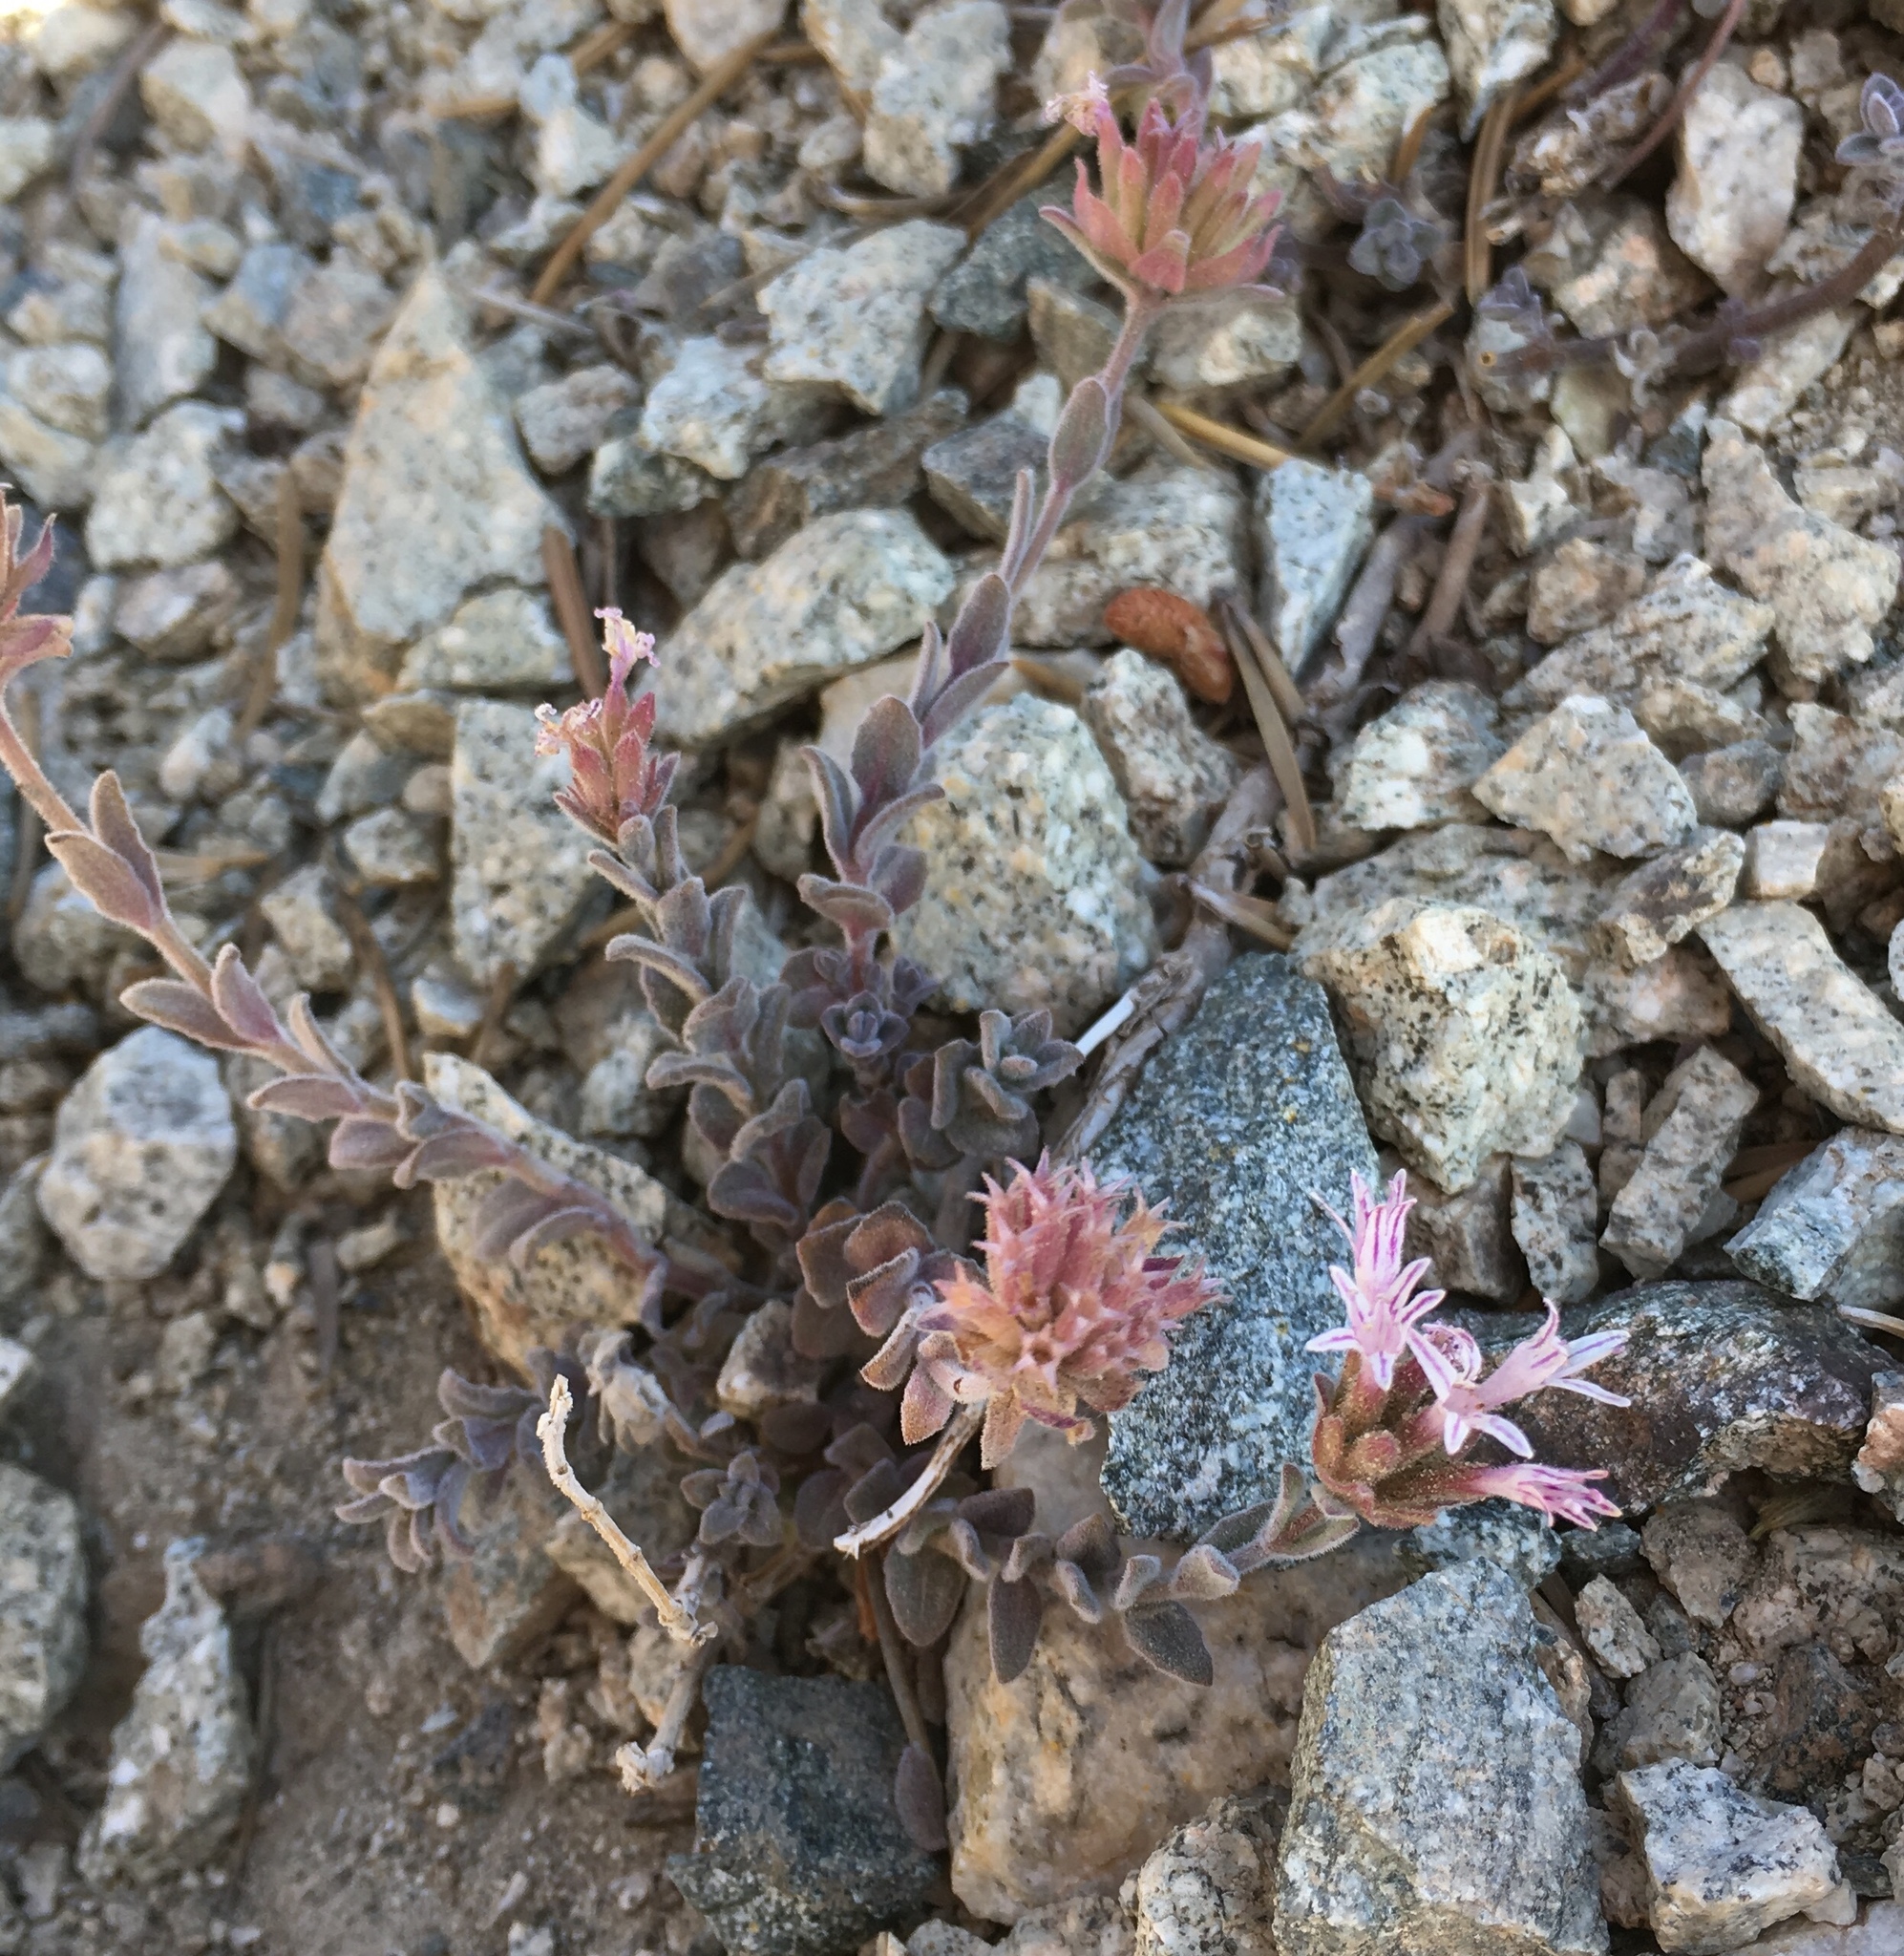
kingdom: Plantae
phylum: Tracheophyta
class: Magnoliopsida
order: Lamiales
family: Lamiaceae
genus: Monardella
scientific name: Monardella australis
